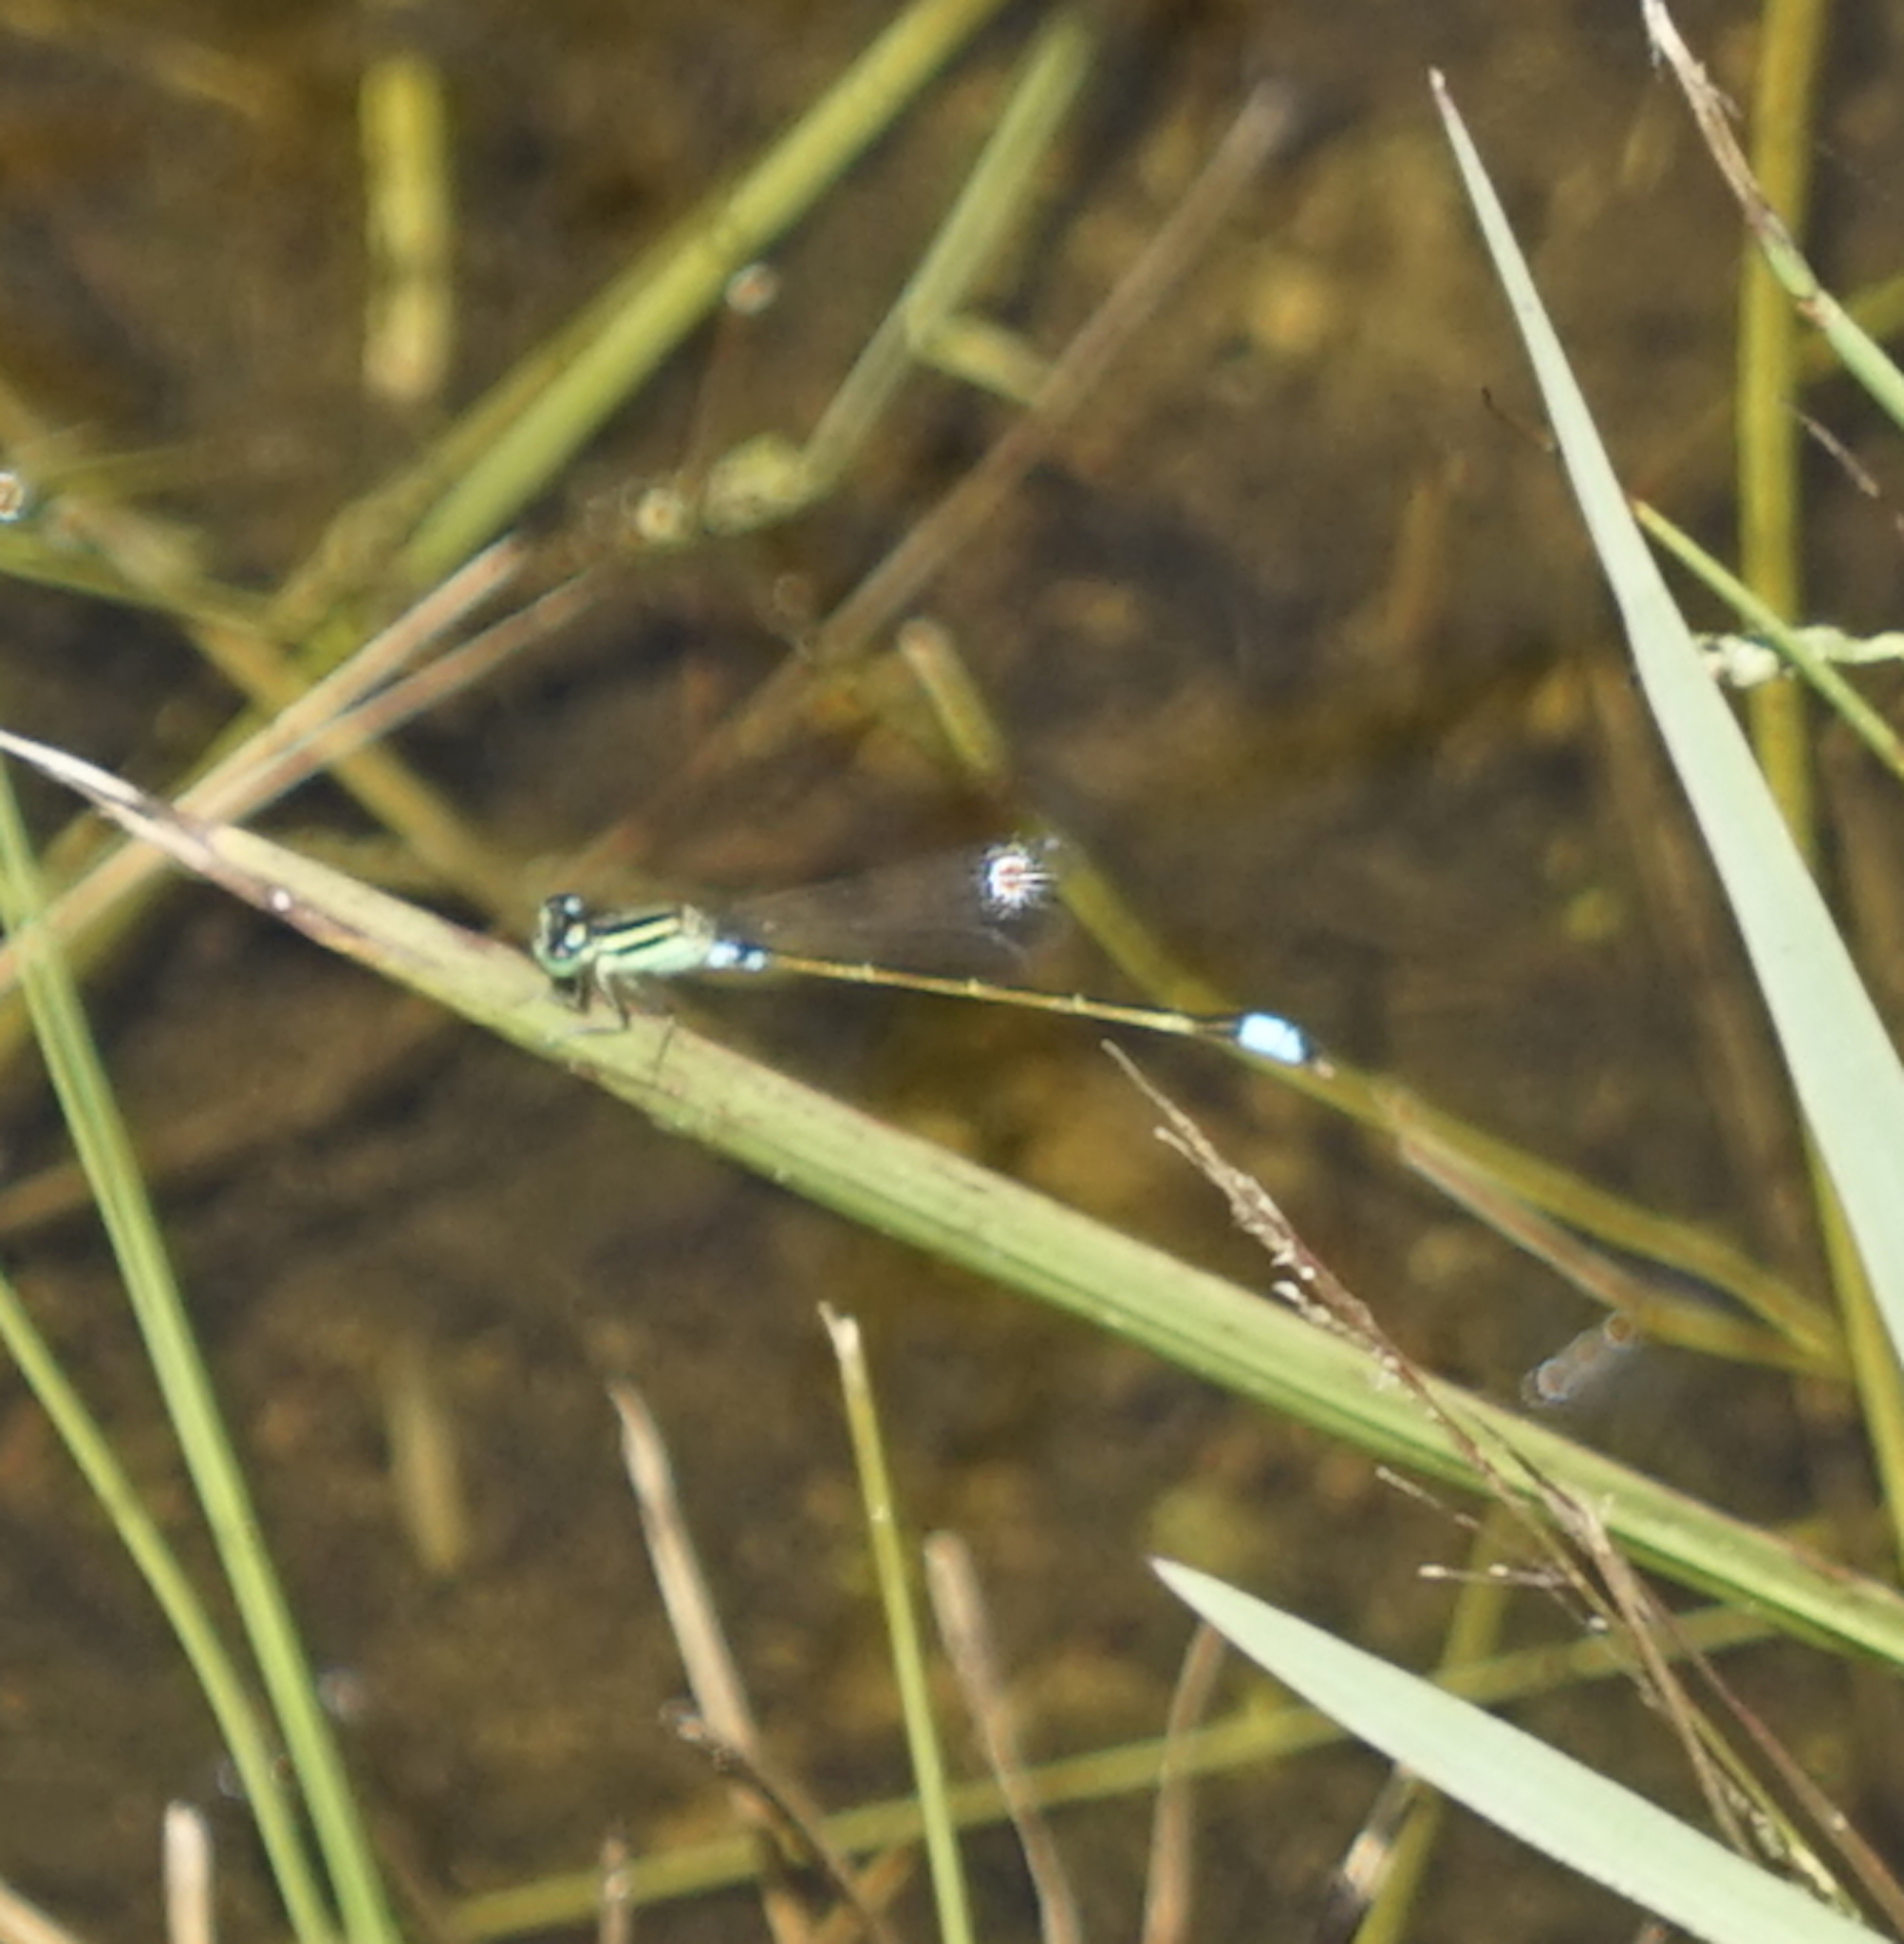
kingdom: Animalia
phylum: Arthropoda
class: Insecta
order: Odonata
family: Coenagrionidae
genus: Ischnura
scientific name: Ischnura senegalensis
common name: Tropical bluetail
